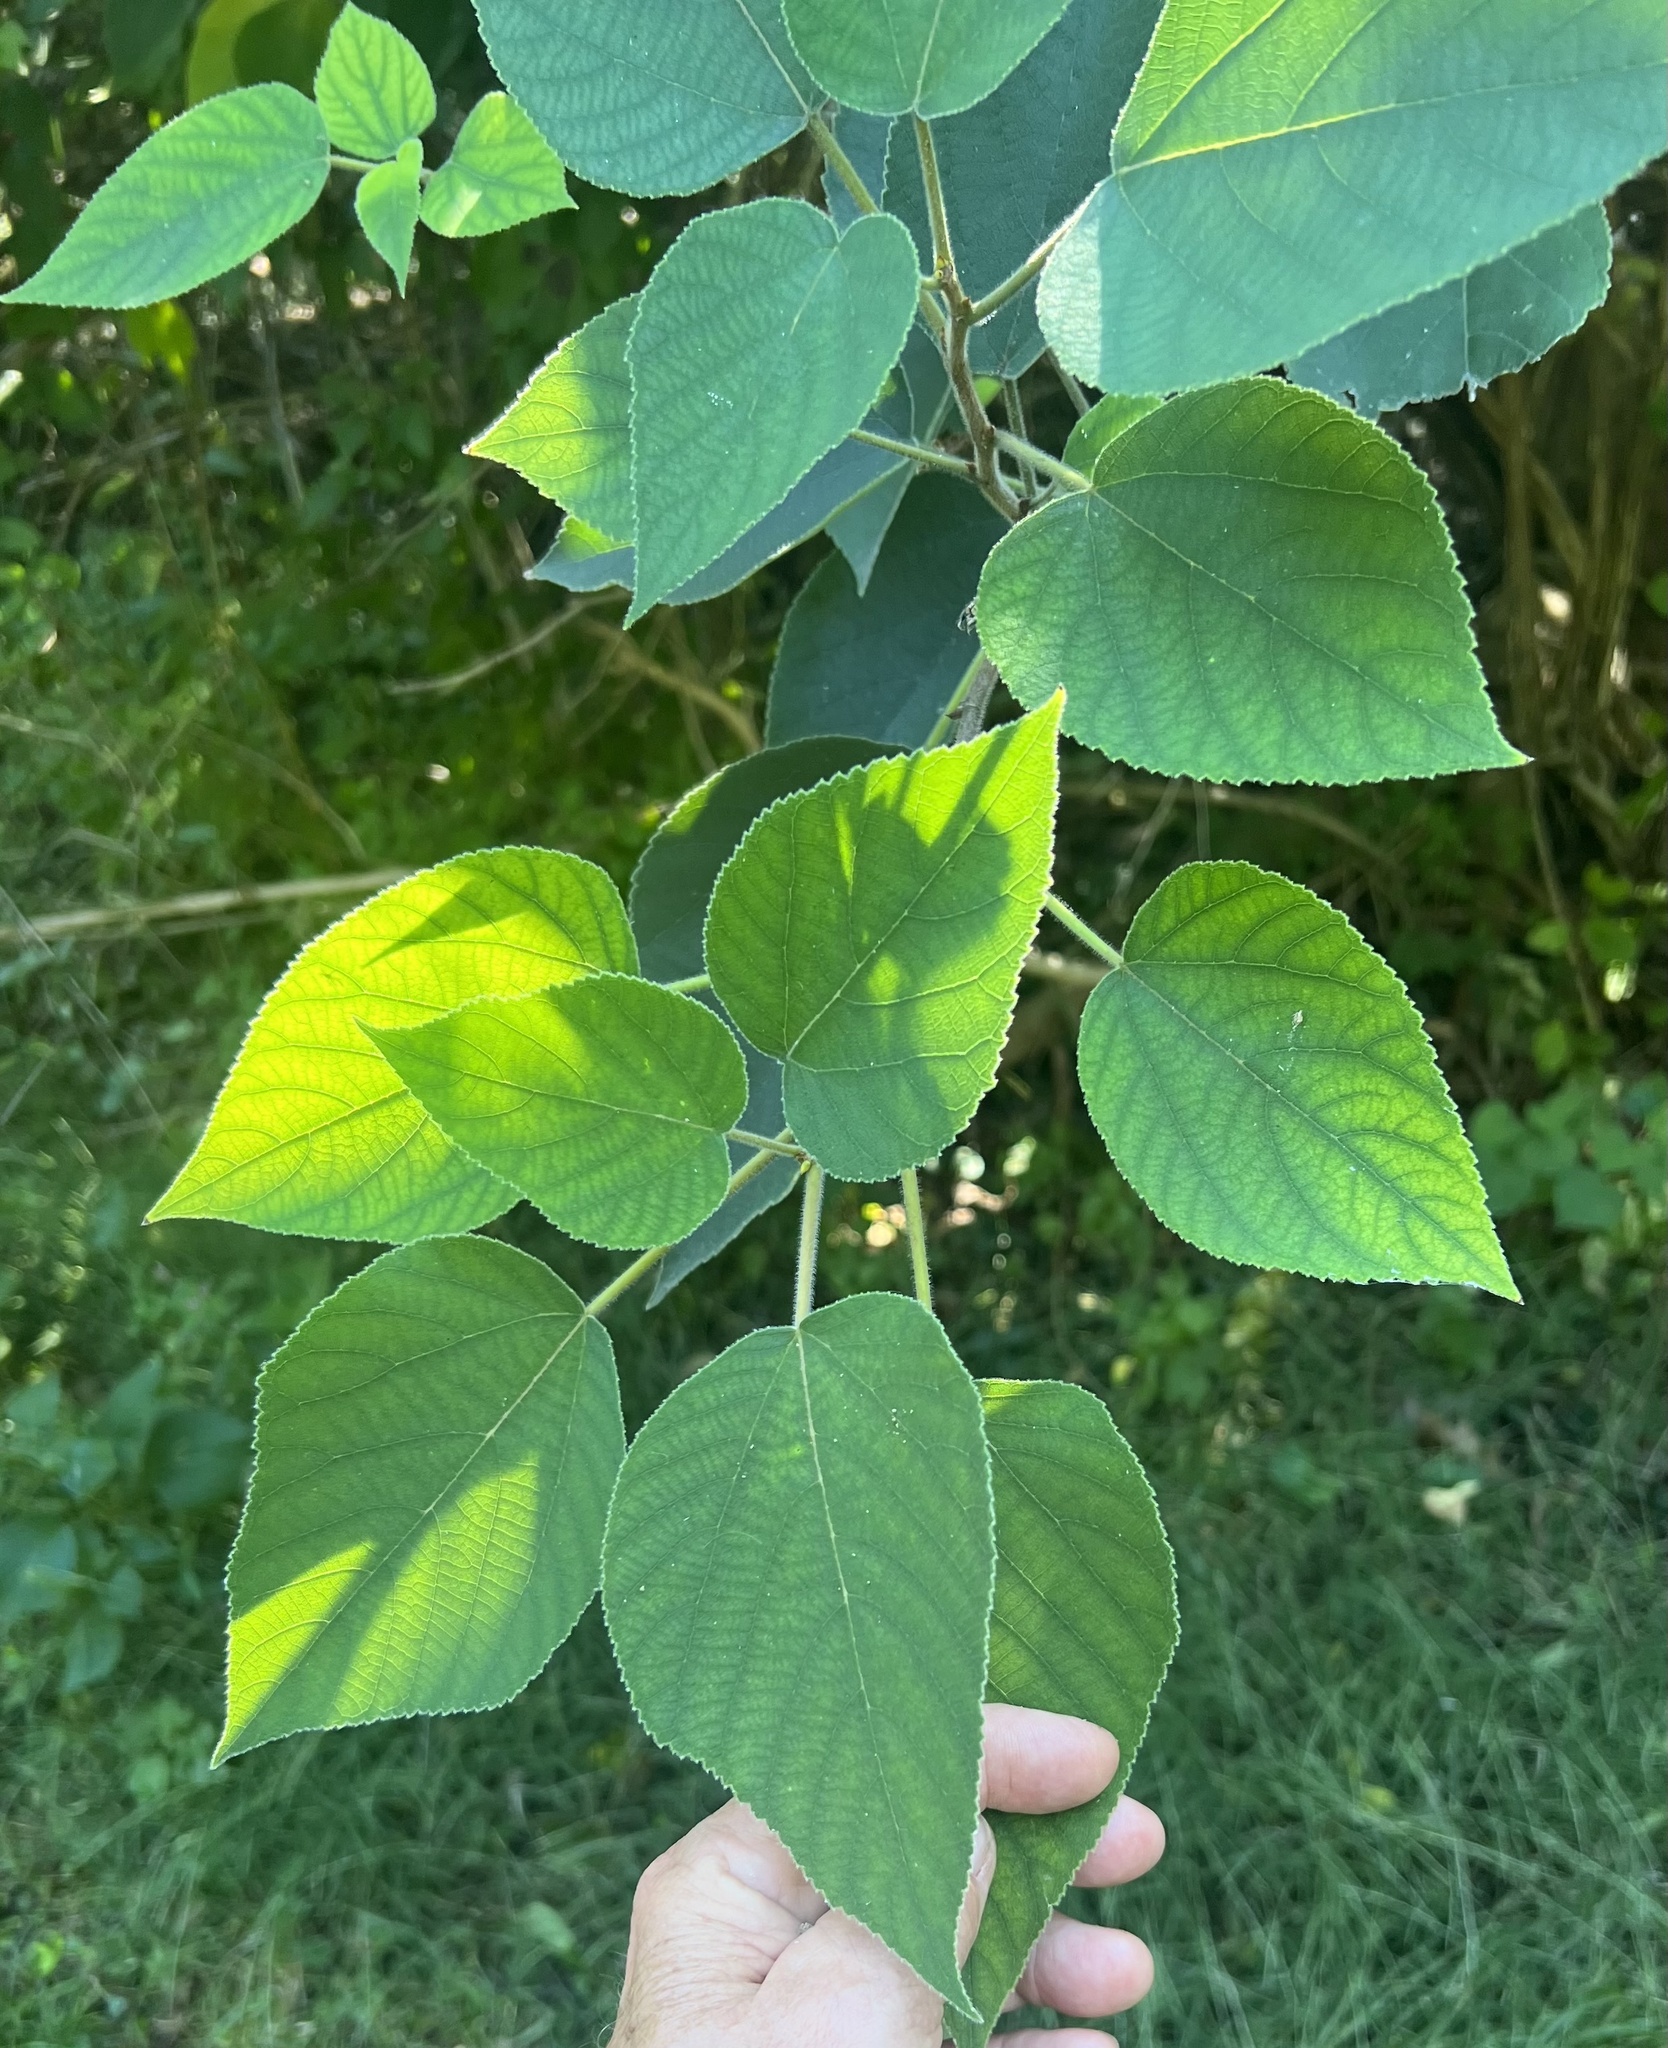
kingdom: Plantae
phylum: Tracheophyta
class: Magnoliopsida
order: Rosales
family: Moraceae
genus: Broussonetia
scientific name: Broussonetia papyrifera
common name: Paper mulberry
